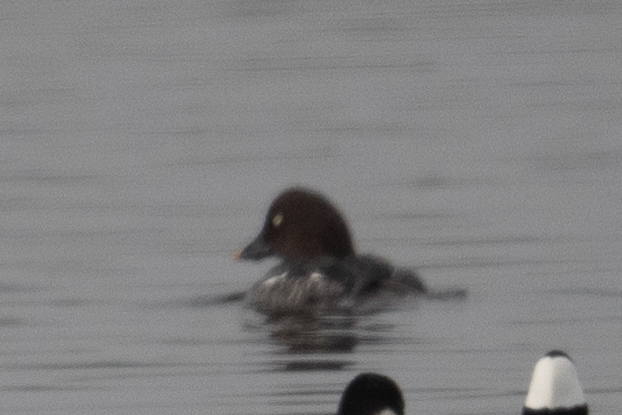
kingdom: Animalia
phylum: Chordata
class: Aves
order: Anseriformes
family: Anatidae
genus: Bucephala
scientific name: Bucephala clangula
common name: Common goldeneye
